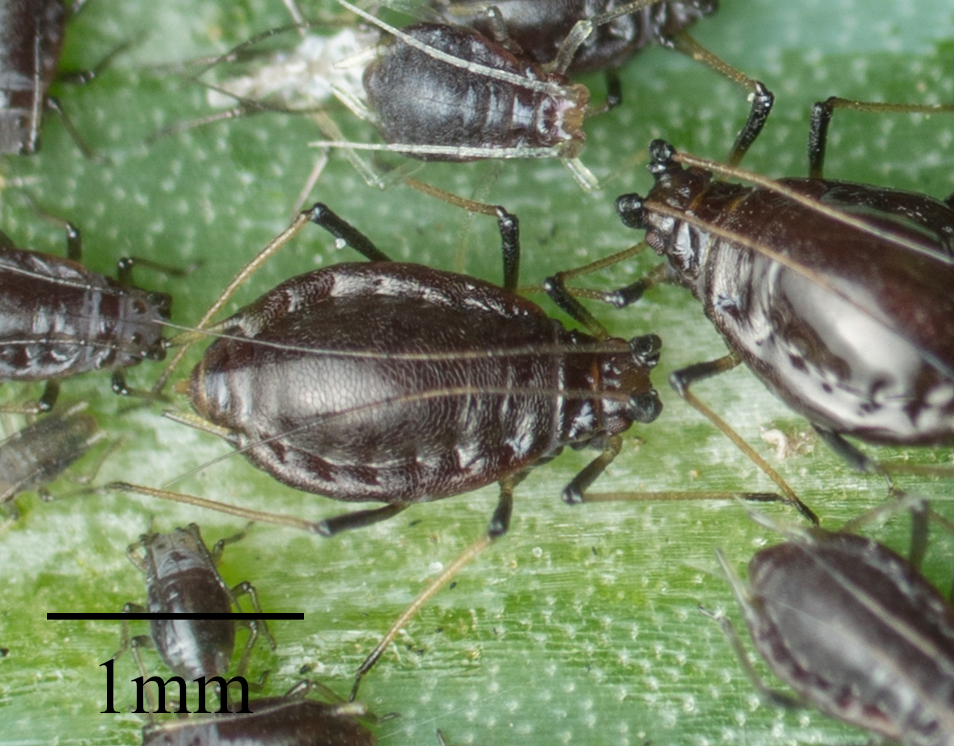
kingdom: Animalia
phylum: Arthropoda
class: Insecta
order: Hemiptera
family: Aphididae
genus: Neotoxoptera
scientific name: Neotoxoptera formosana
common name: Onion aphid
